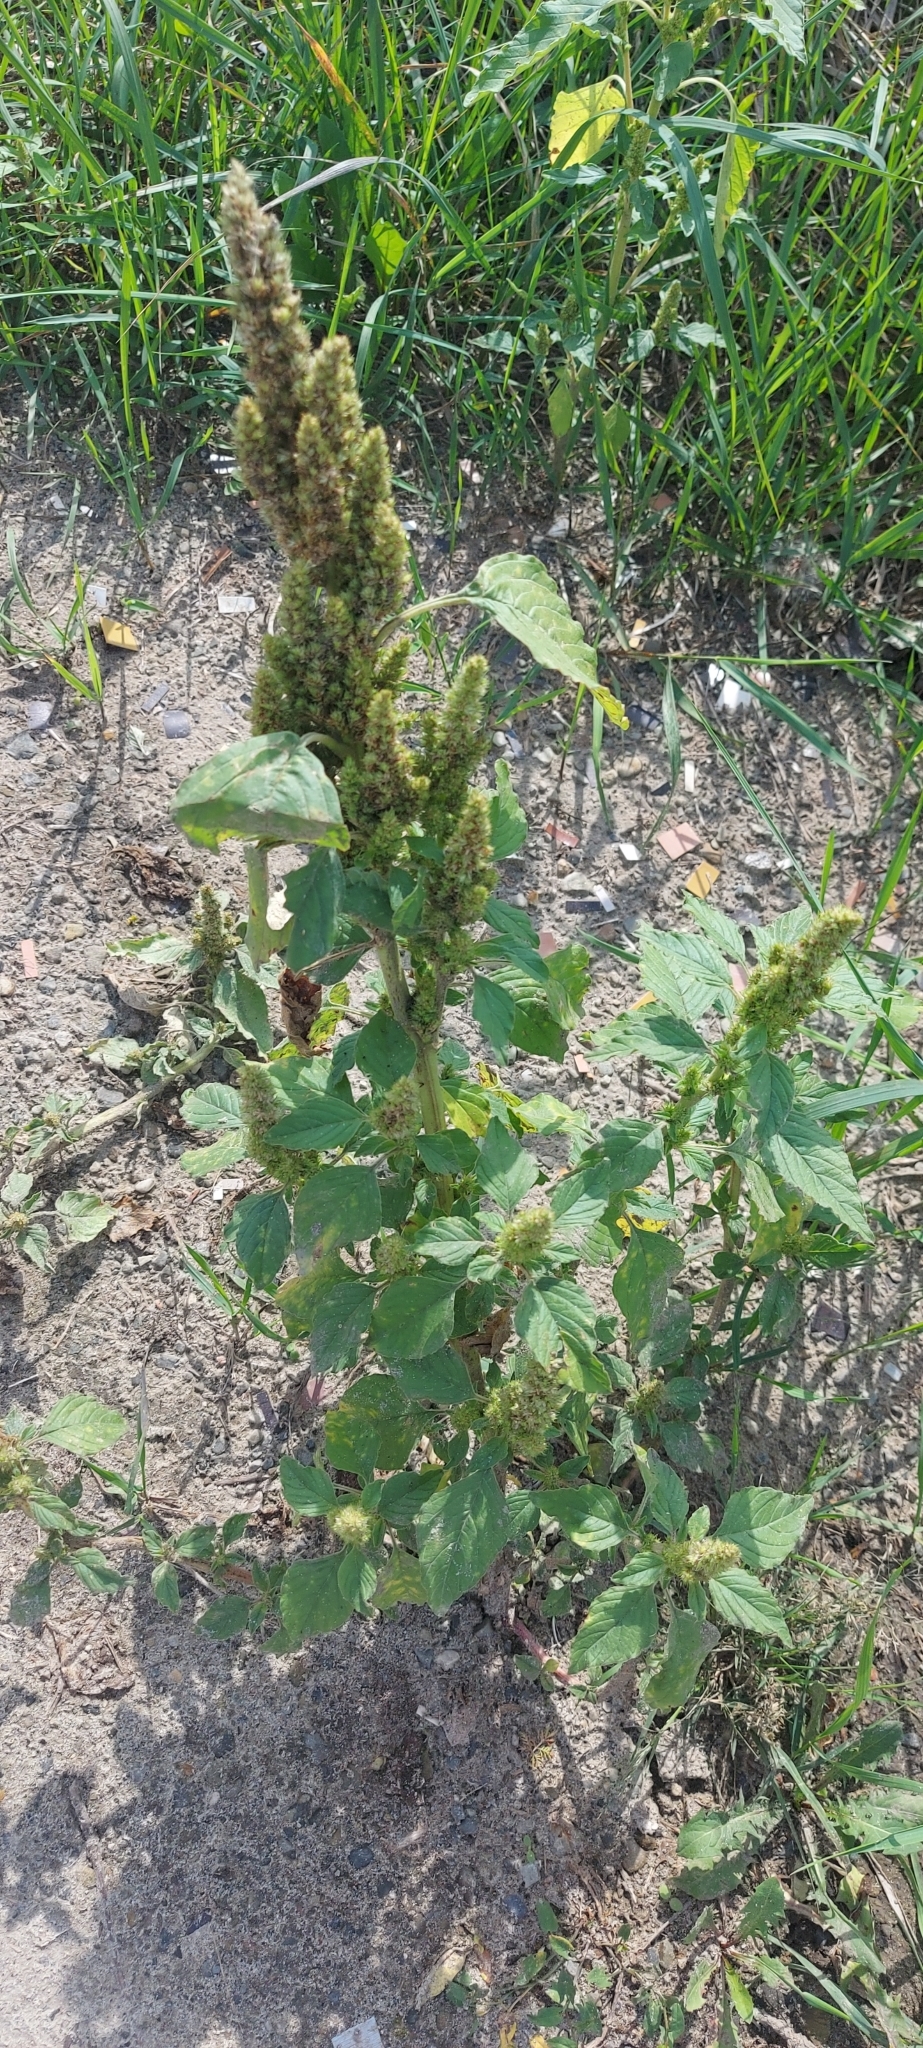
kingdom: Plantae
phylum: Tracheophyta
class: Magnoliopsida
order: Caryophyllales
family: Amaranthaceae
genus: Amaranthus
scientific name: Amaranthus retroflexus
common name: Redroot amaranth
